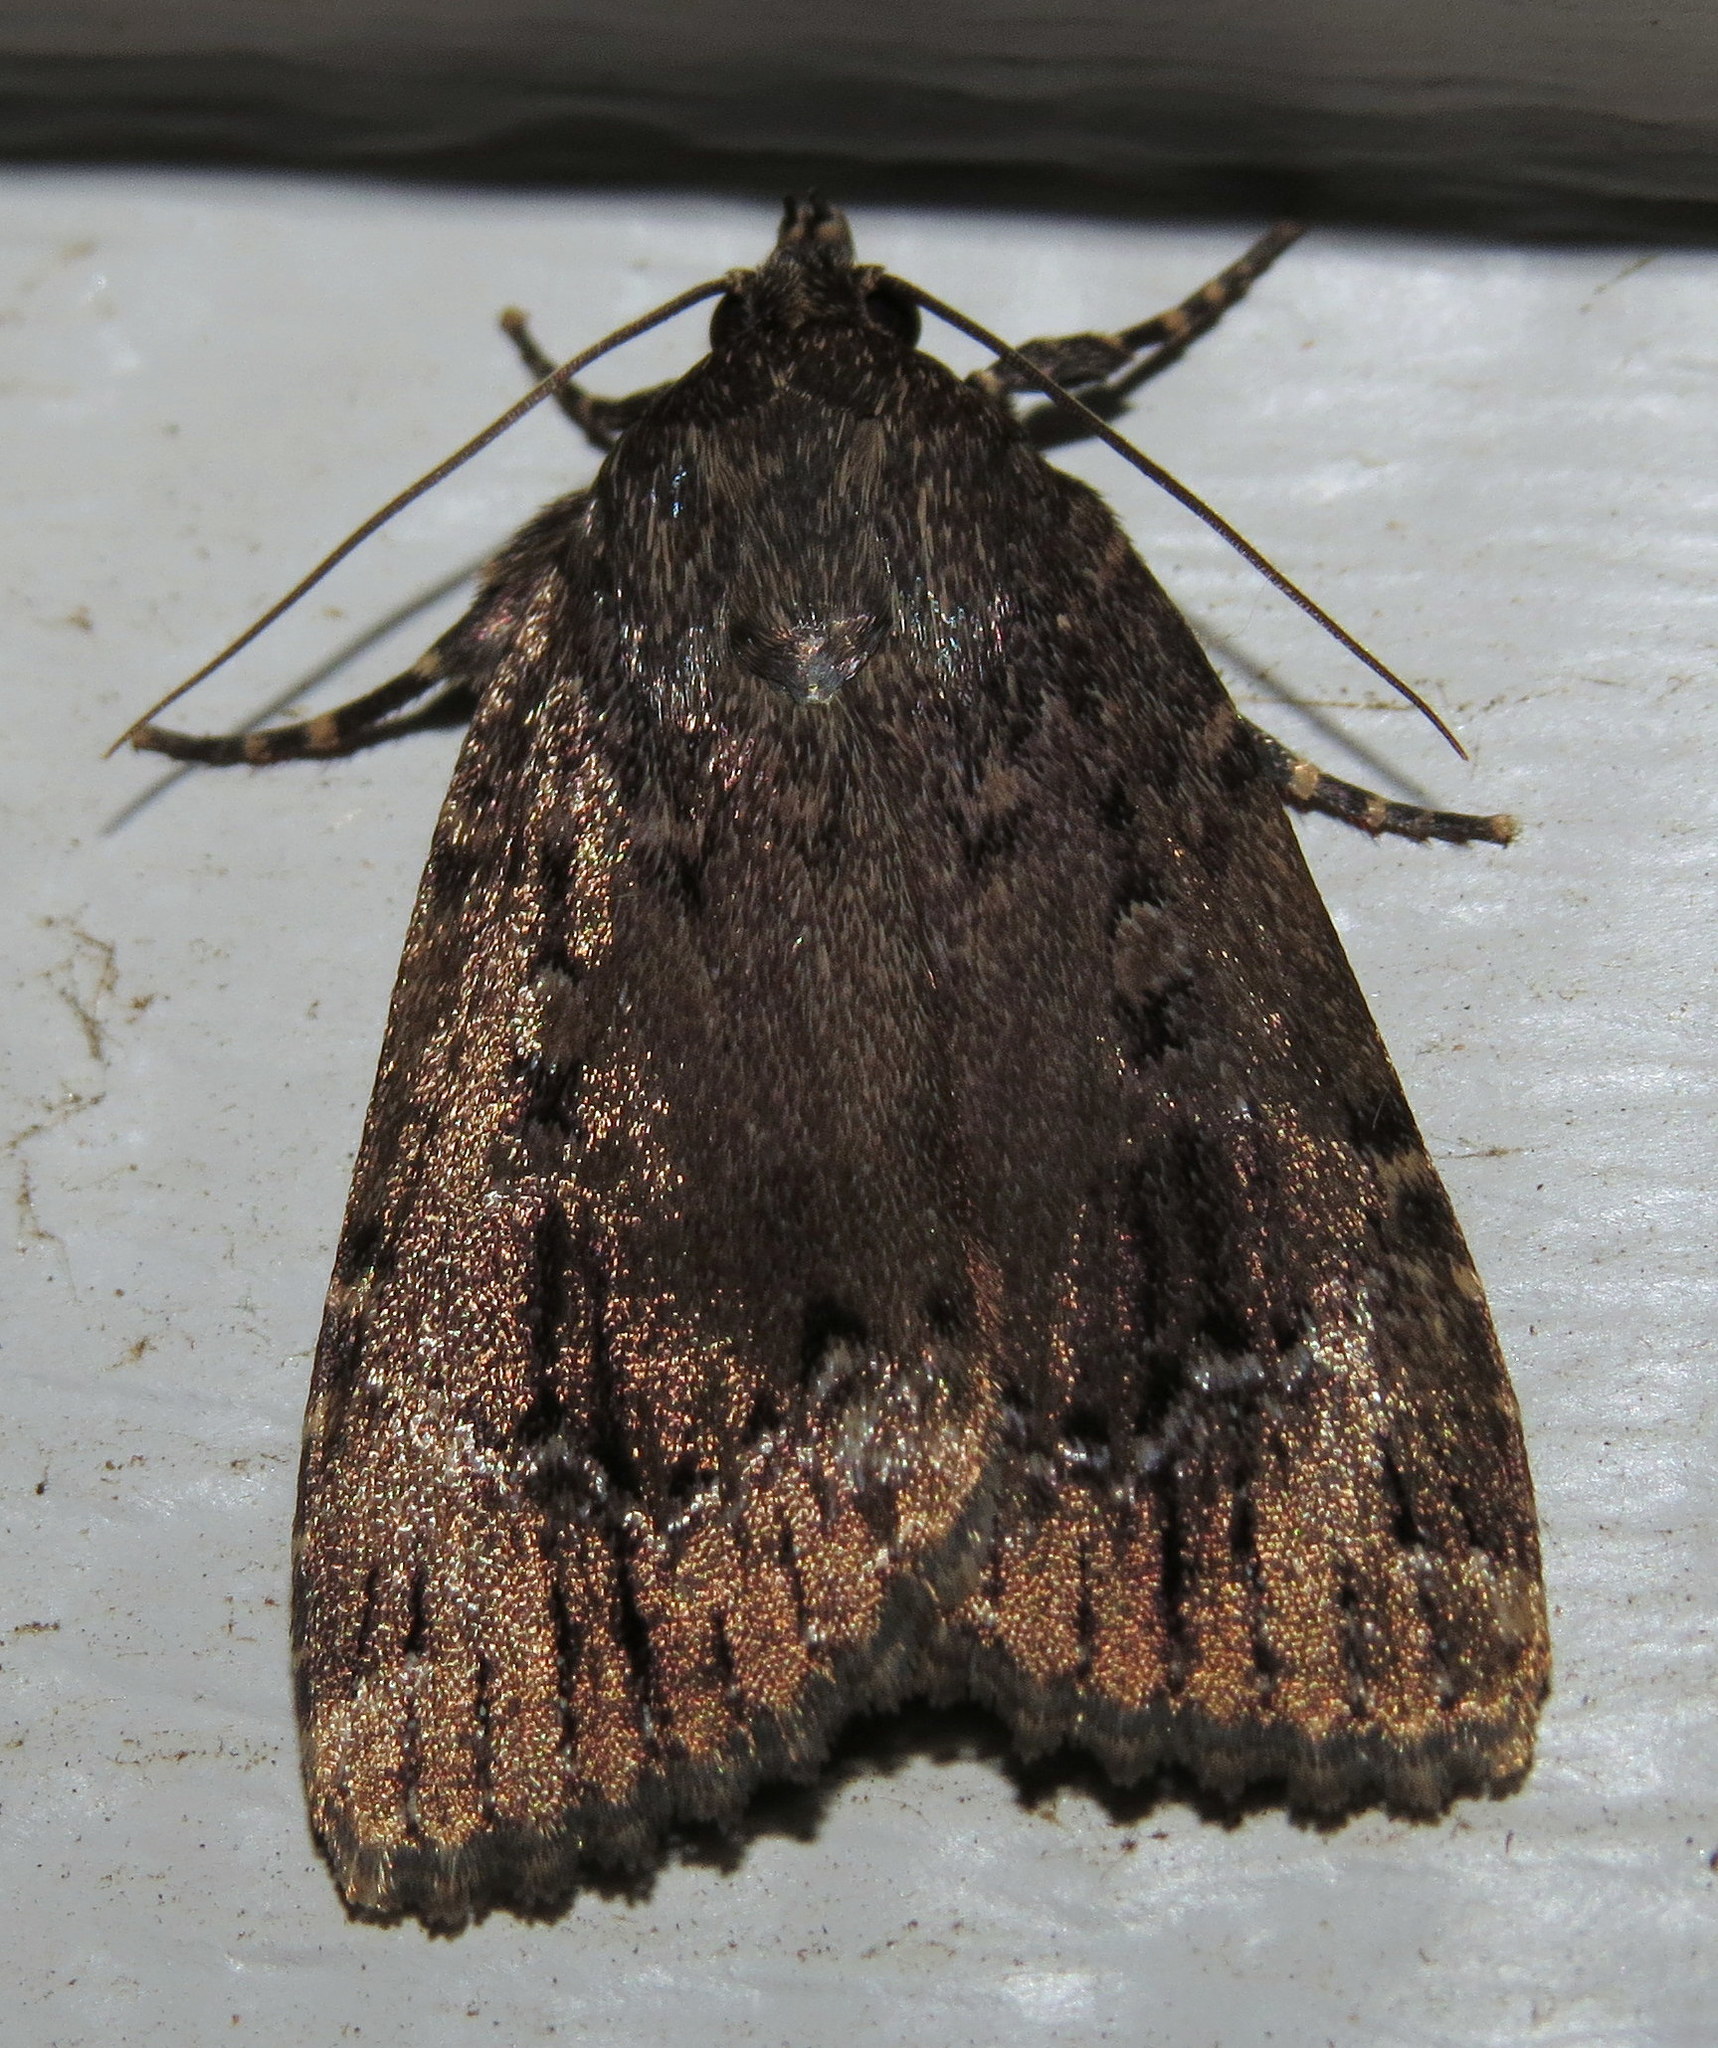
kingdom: Animalia
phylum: Arthropoda
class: Insecta
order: Lepidoptera
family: Noctuidae
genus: Amphipyra
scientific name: Amphipyra pyramidoides
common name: American copper underwing
